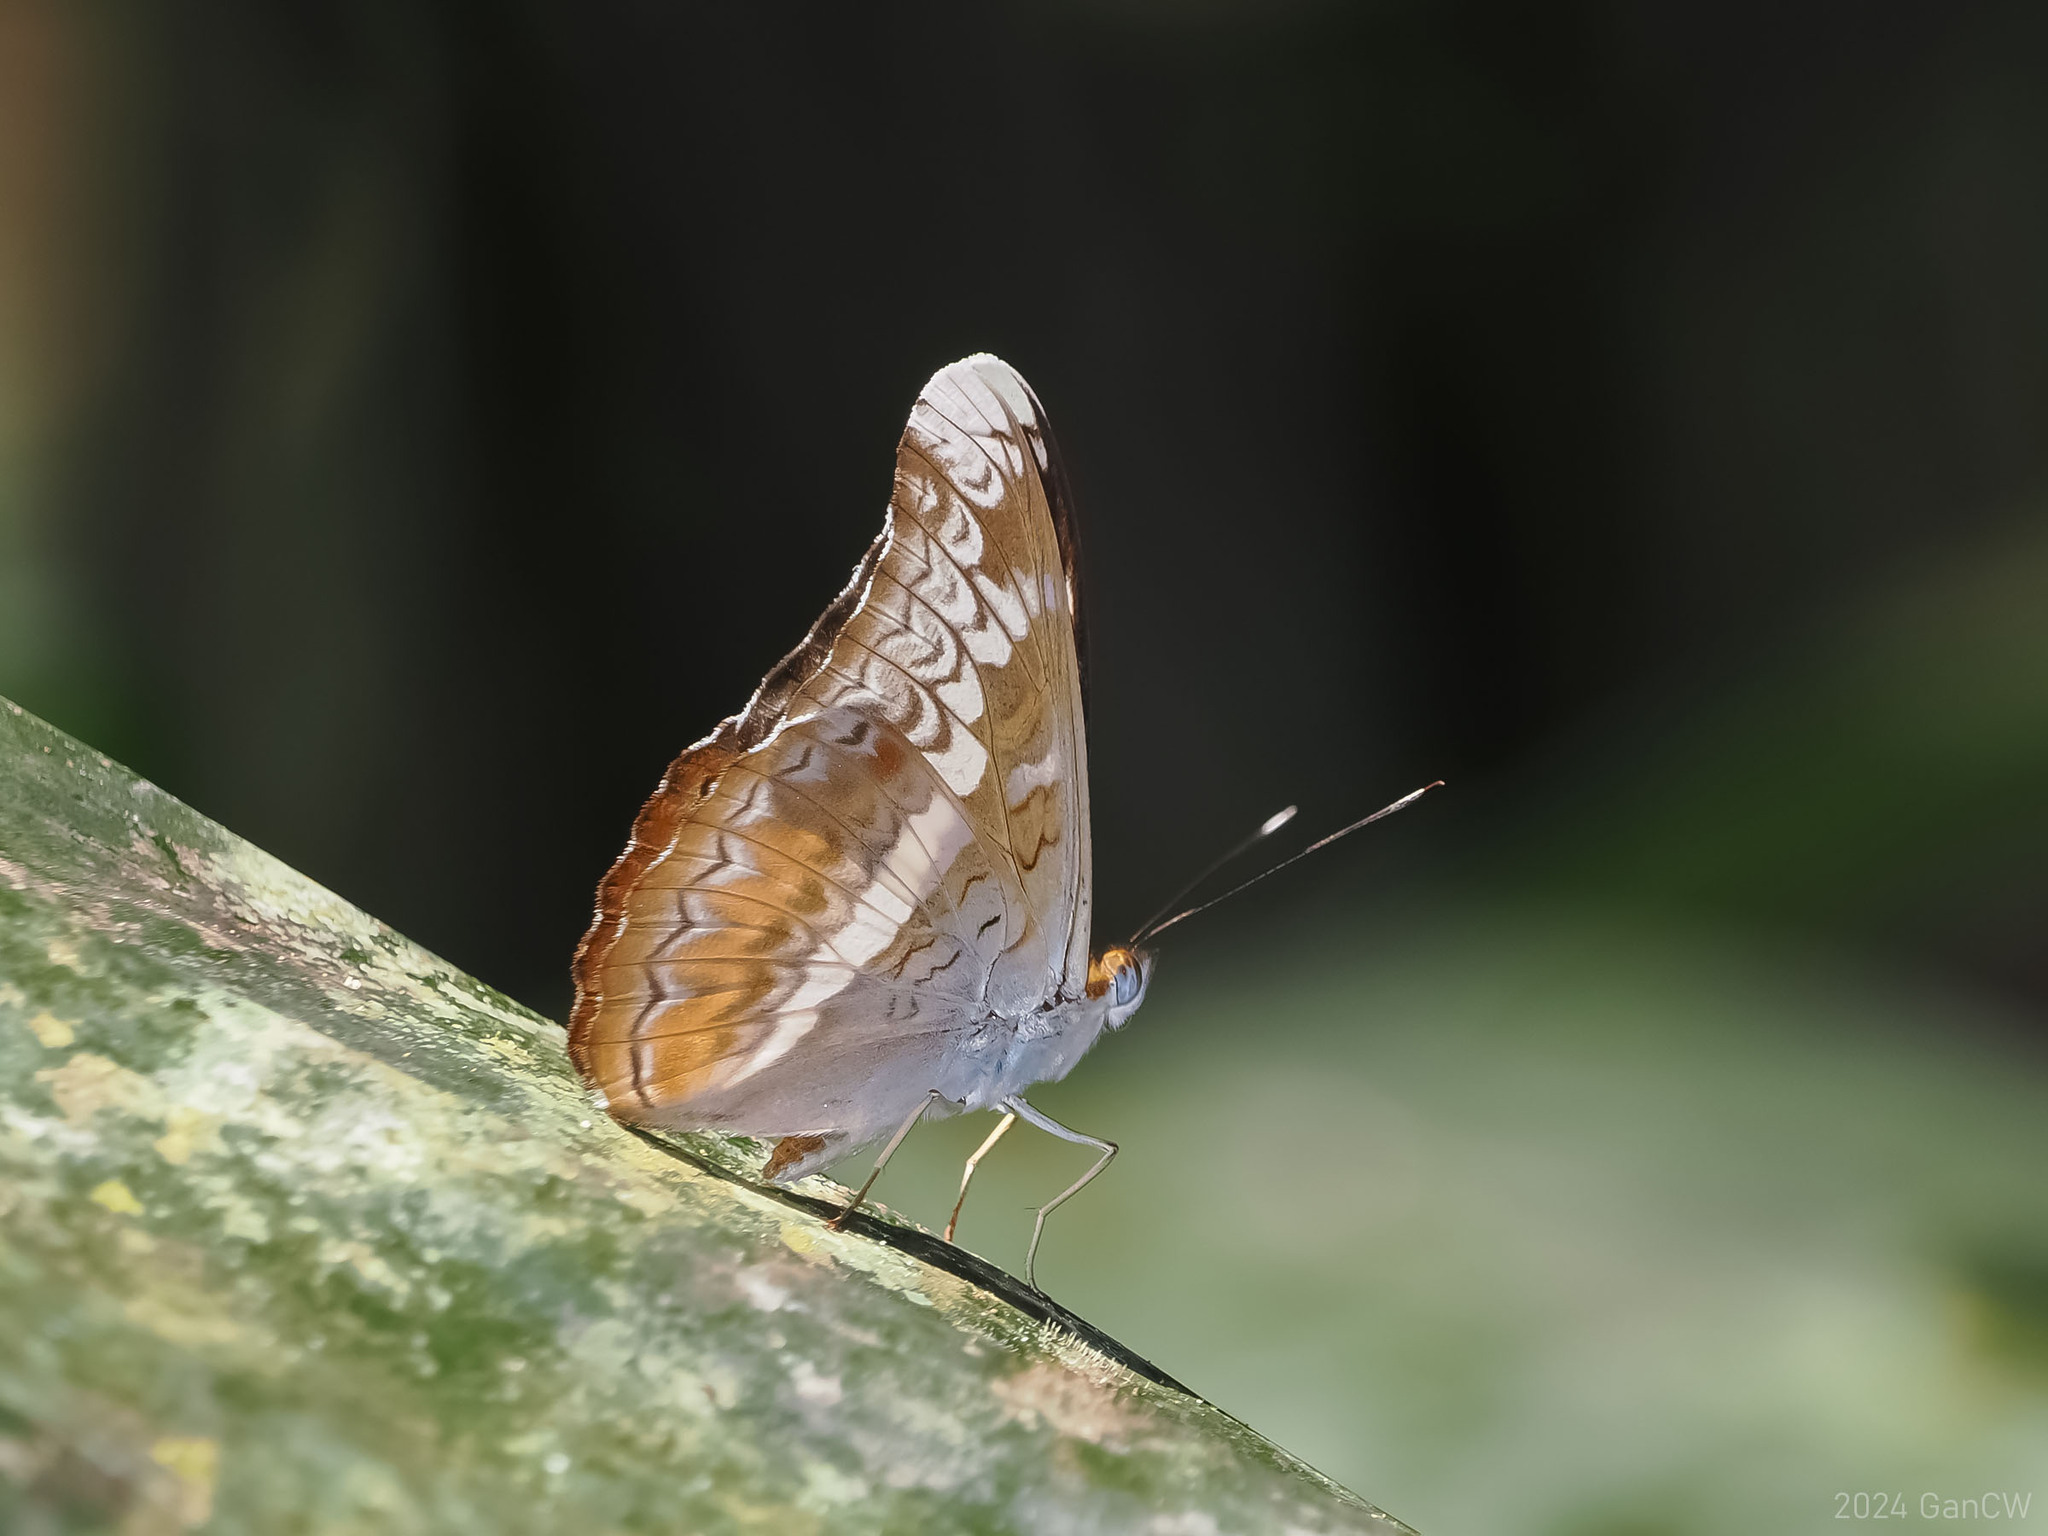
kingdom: Animalia
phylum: Arthropoda
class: Insecta
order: Lepidoptera
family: Nymphalidae
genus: Lebadea
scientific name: Lebadea martha
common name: Knight
